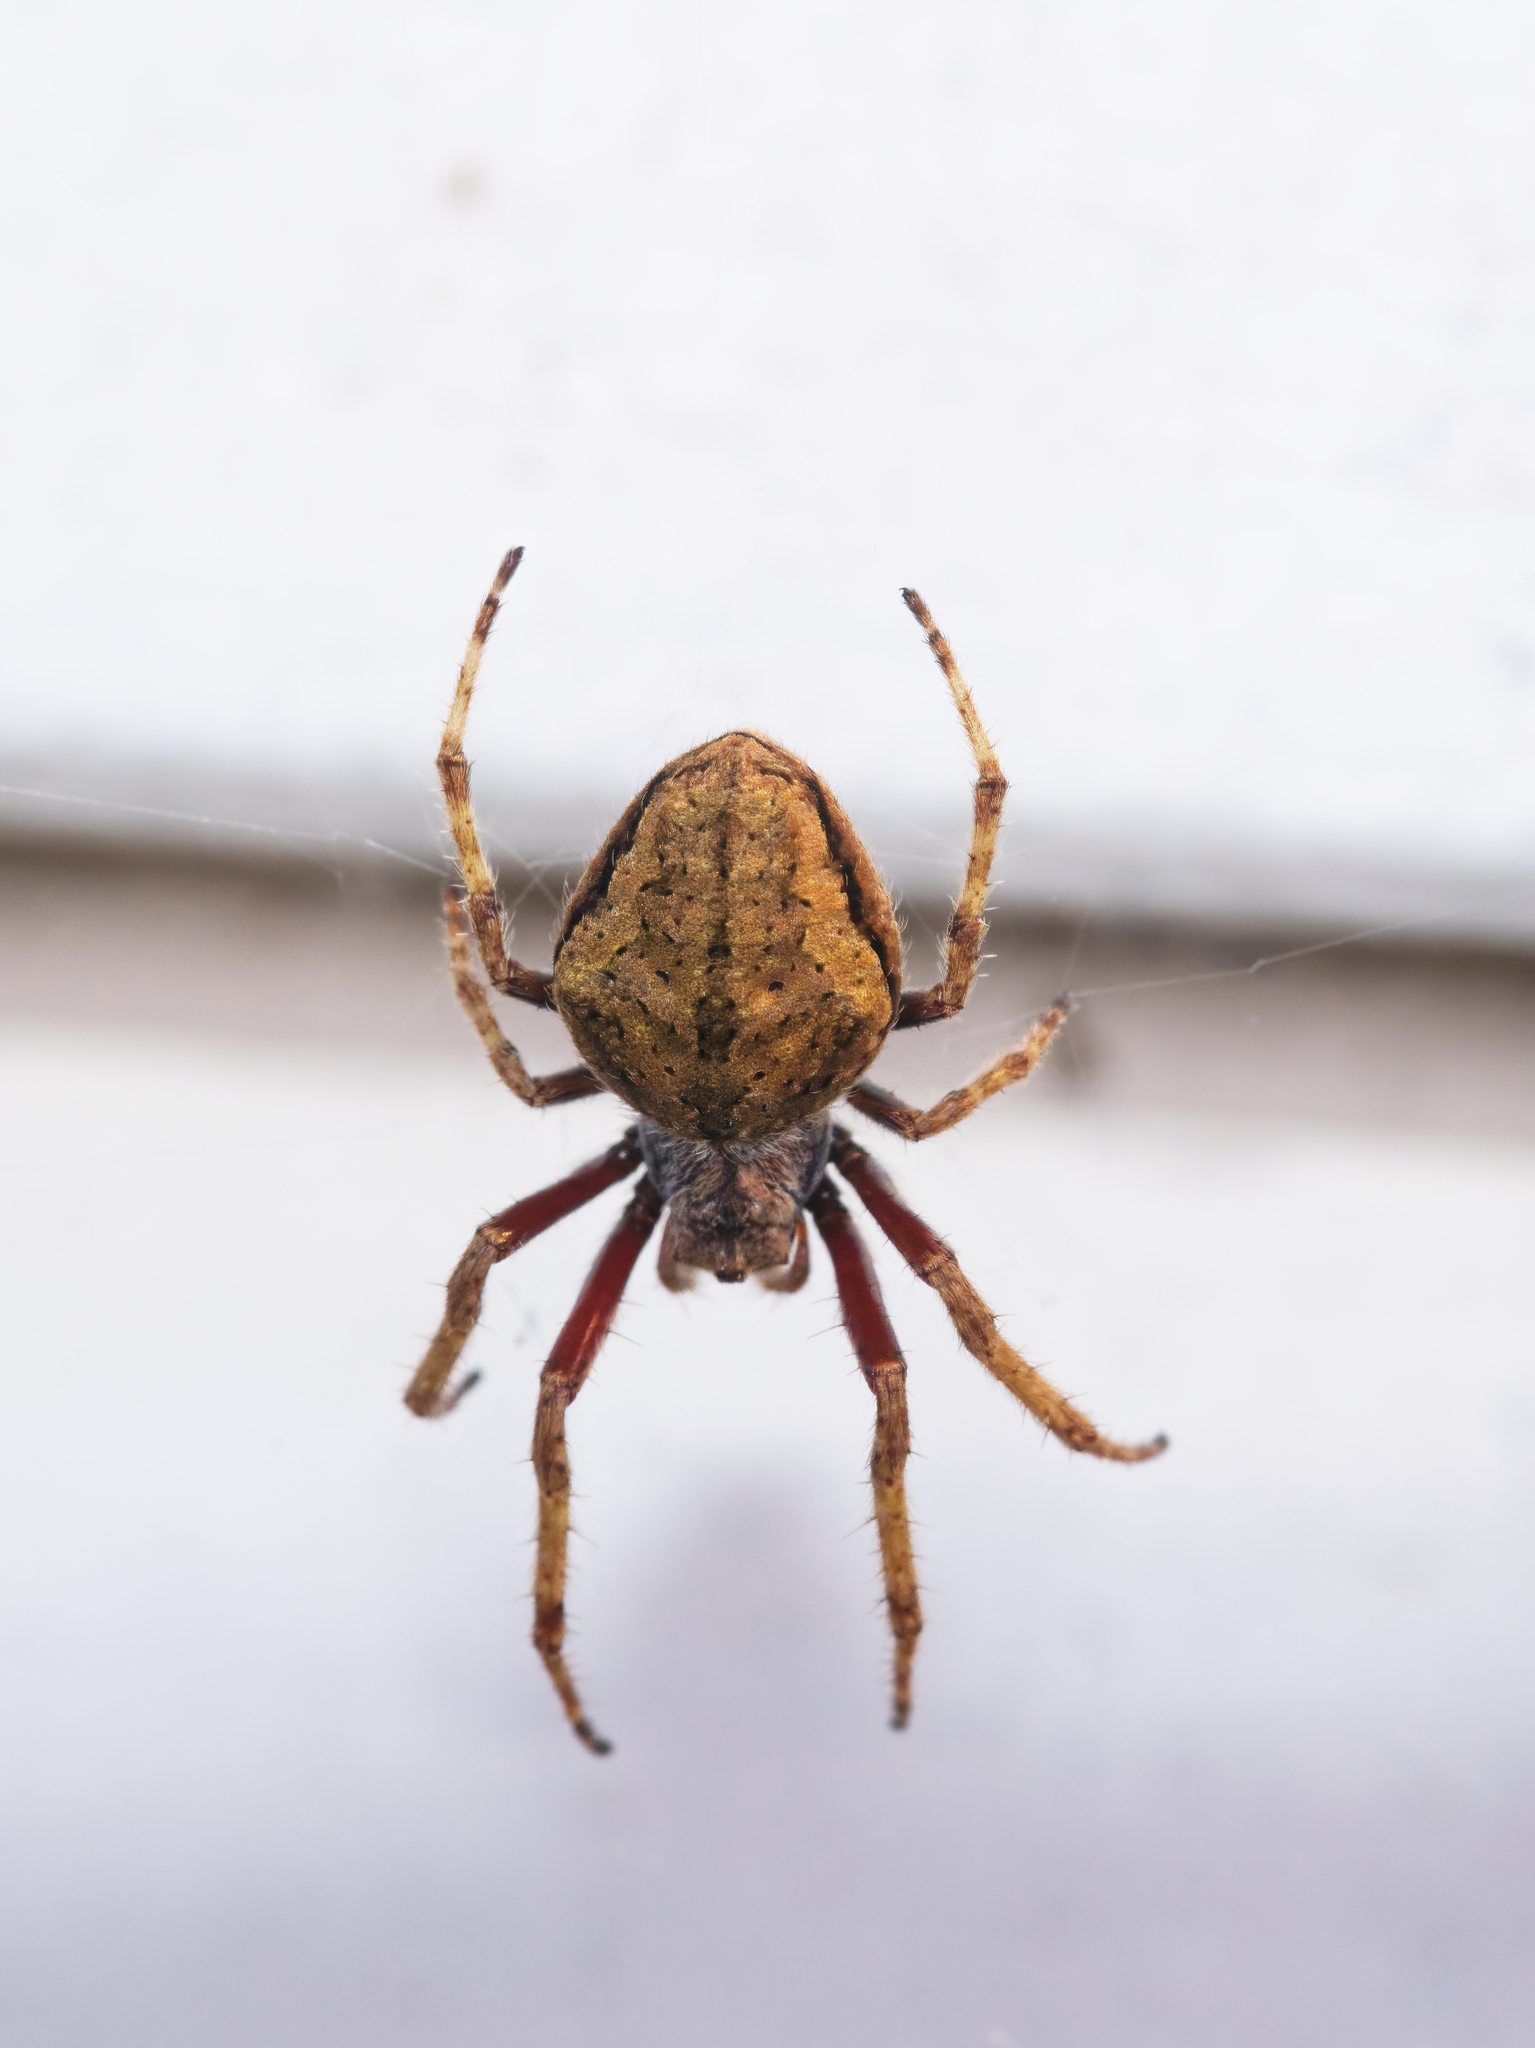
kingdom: Animalia
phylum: Arthropoda
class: Arachnida
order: Araneae
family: Araneidae
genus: Eriophora
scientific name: Eriophora pustulosa
